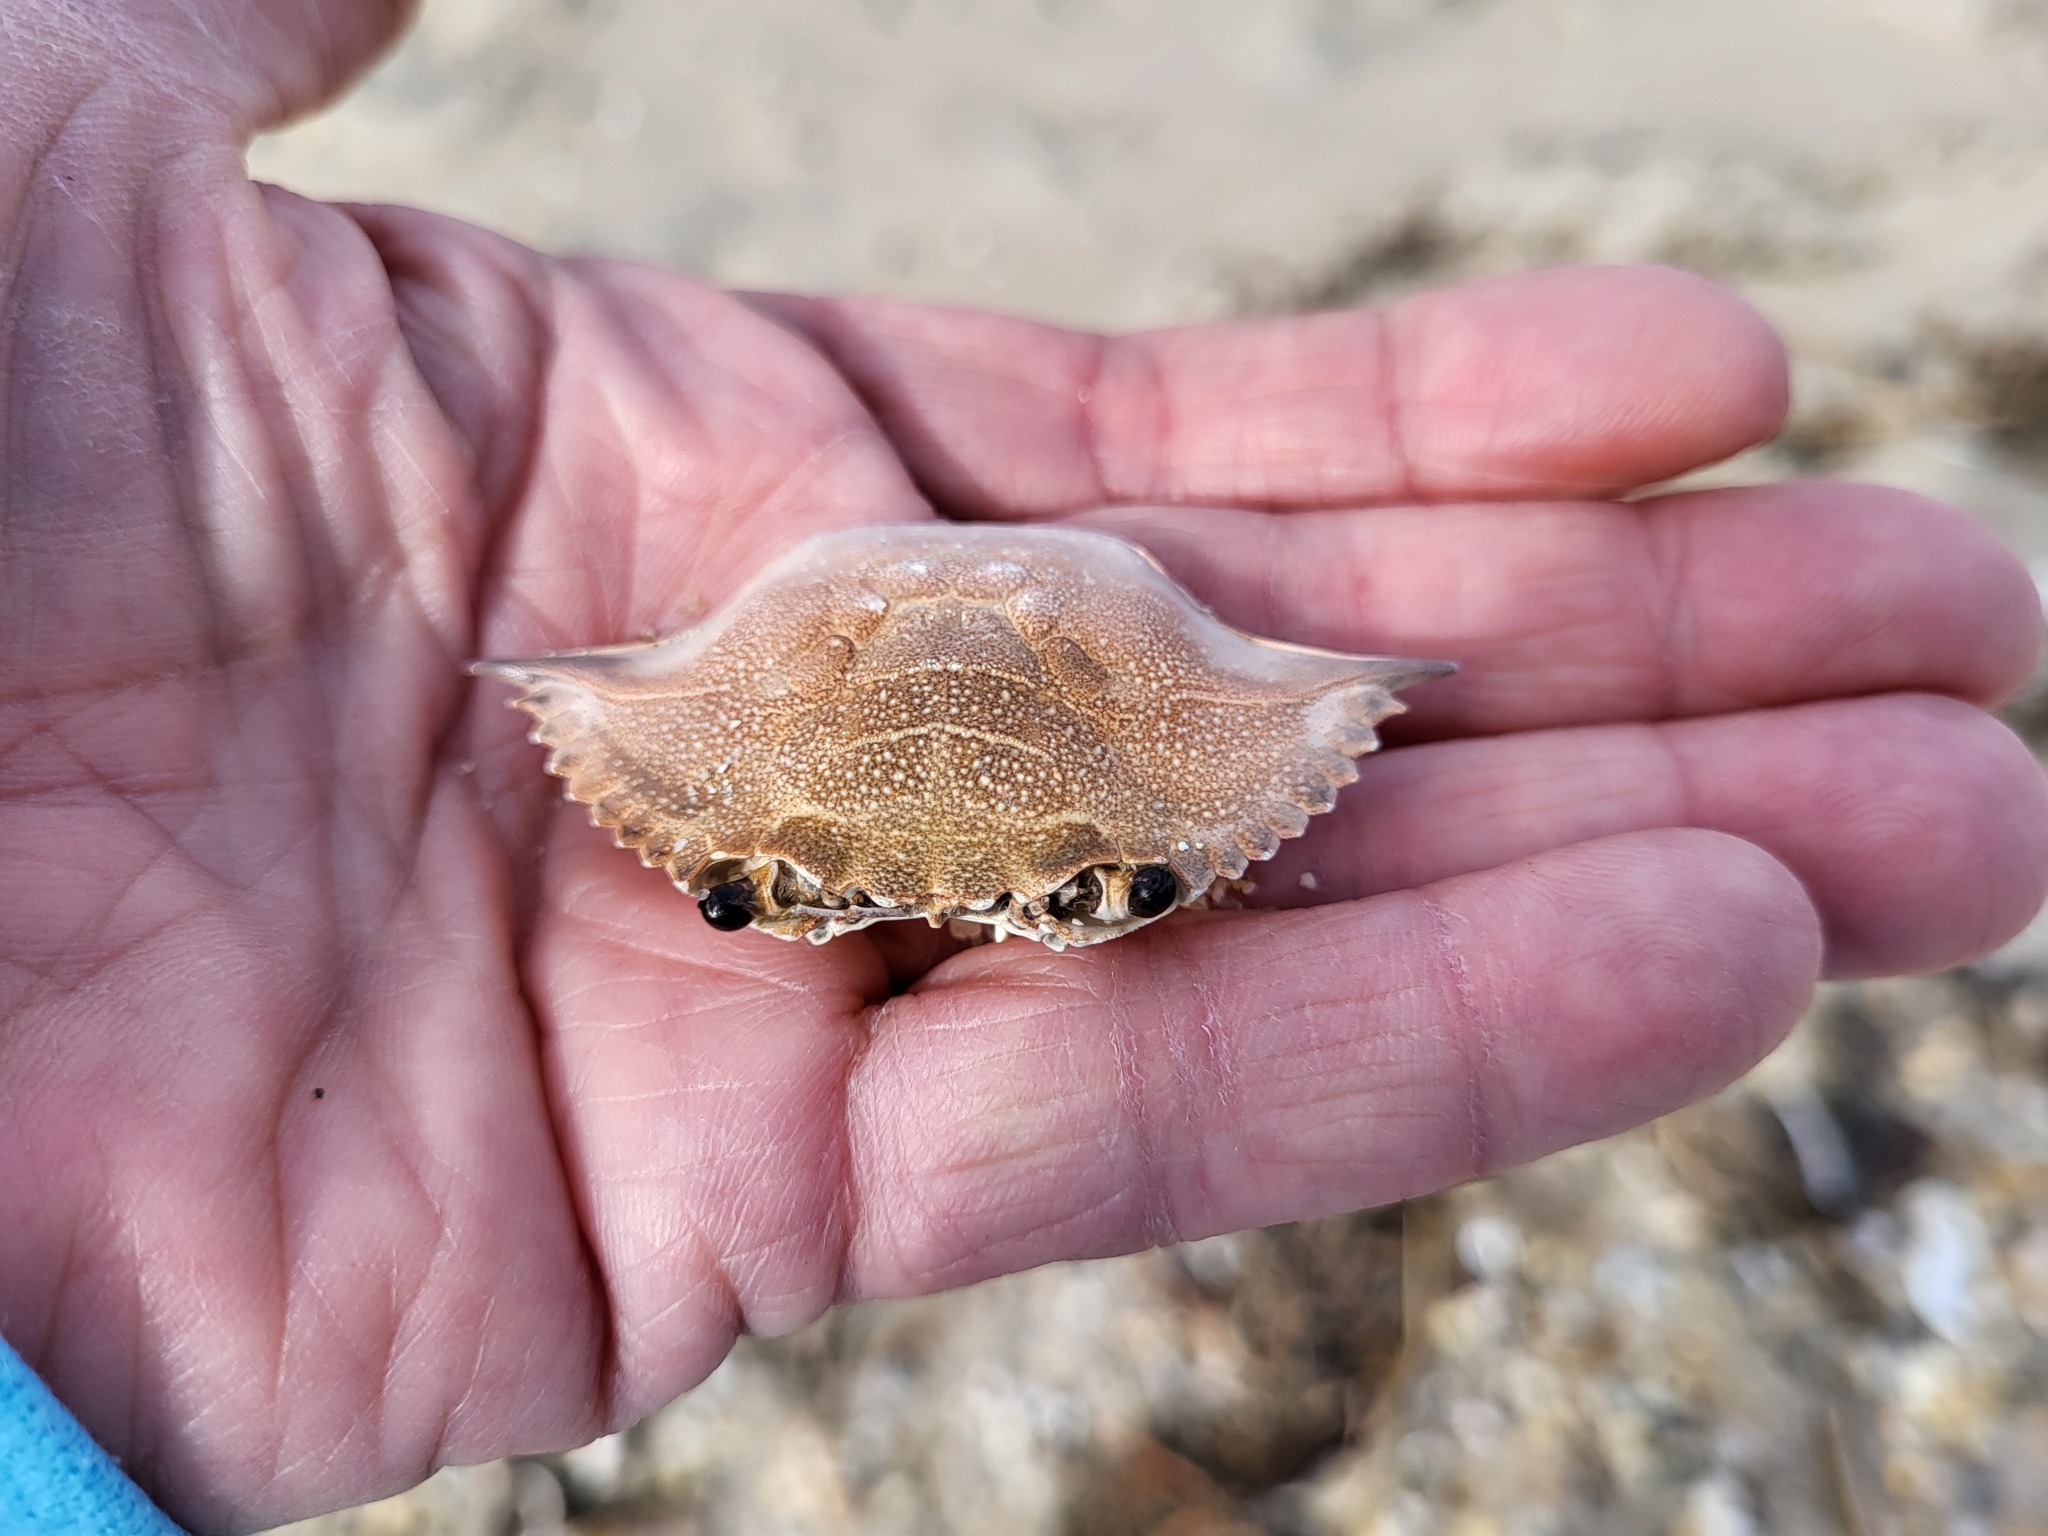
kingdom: Animalia
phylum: Arthropoda
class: Malacostraca
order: Decapoda
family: Portunidae
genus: Callinectes
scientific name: Callinectes sapidus
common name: Blue crab
